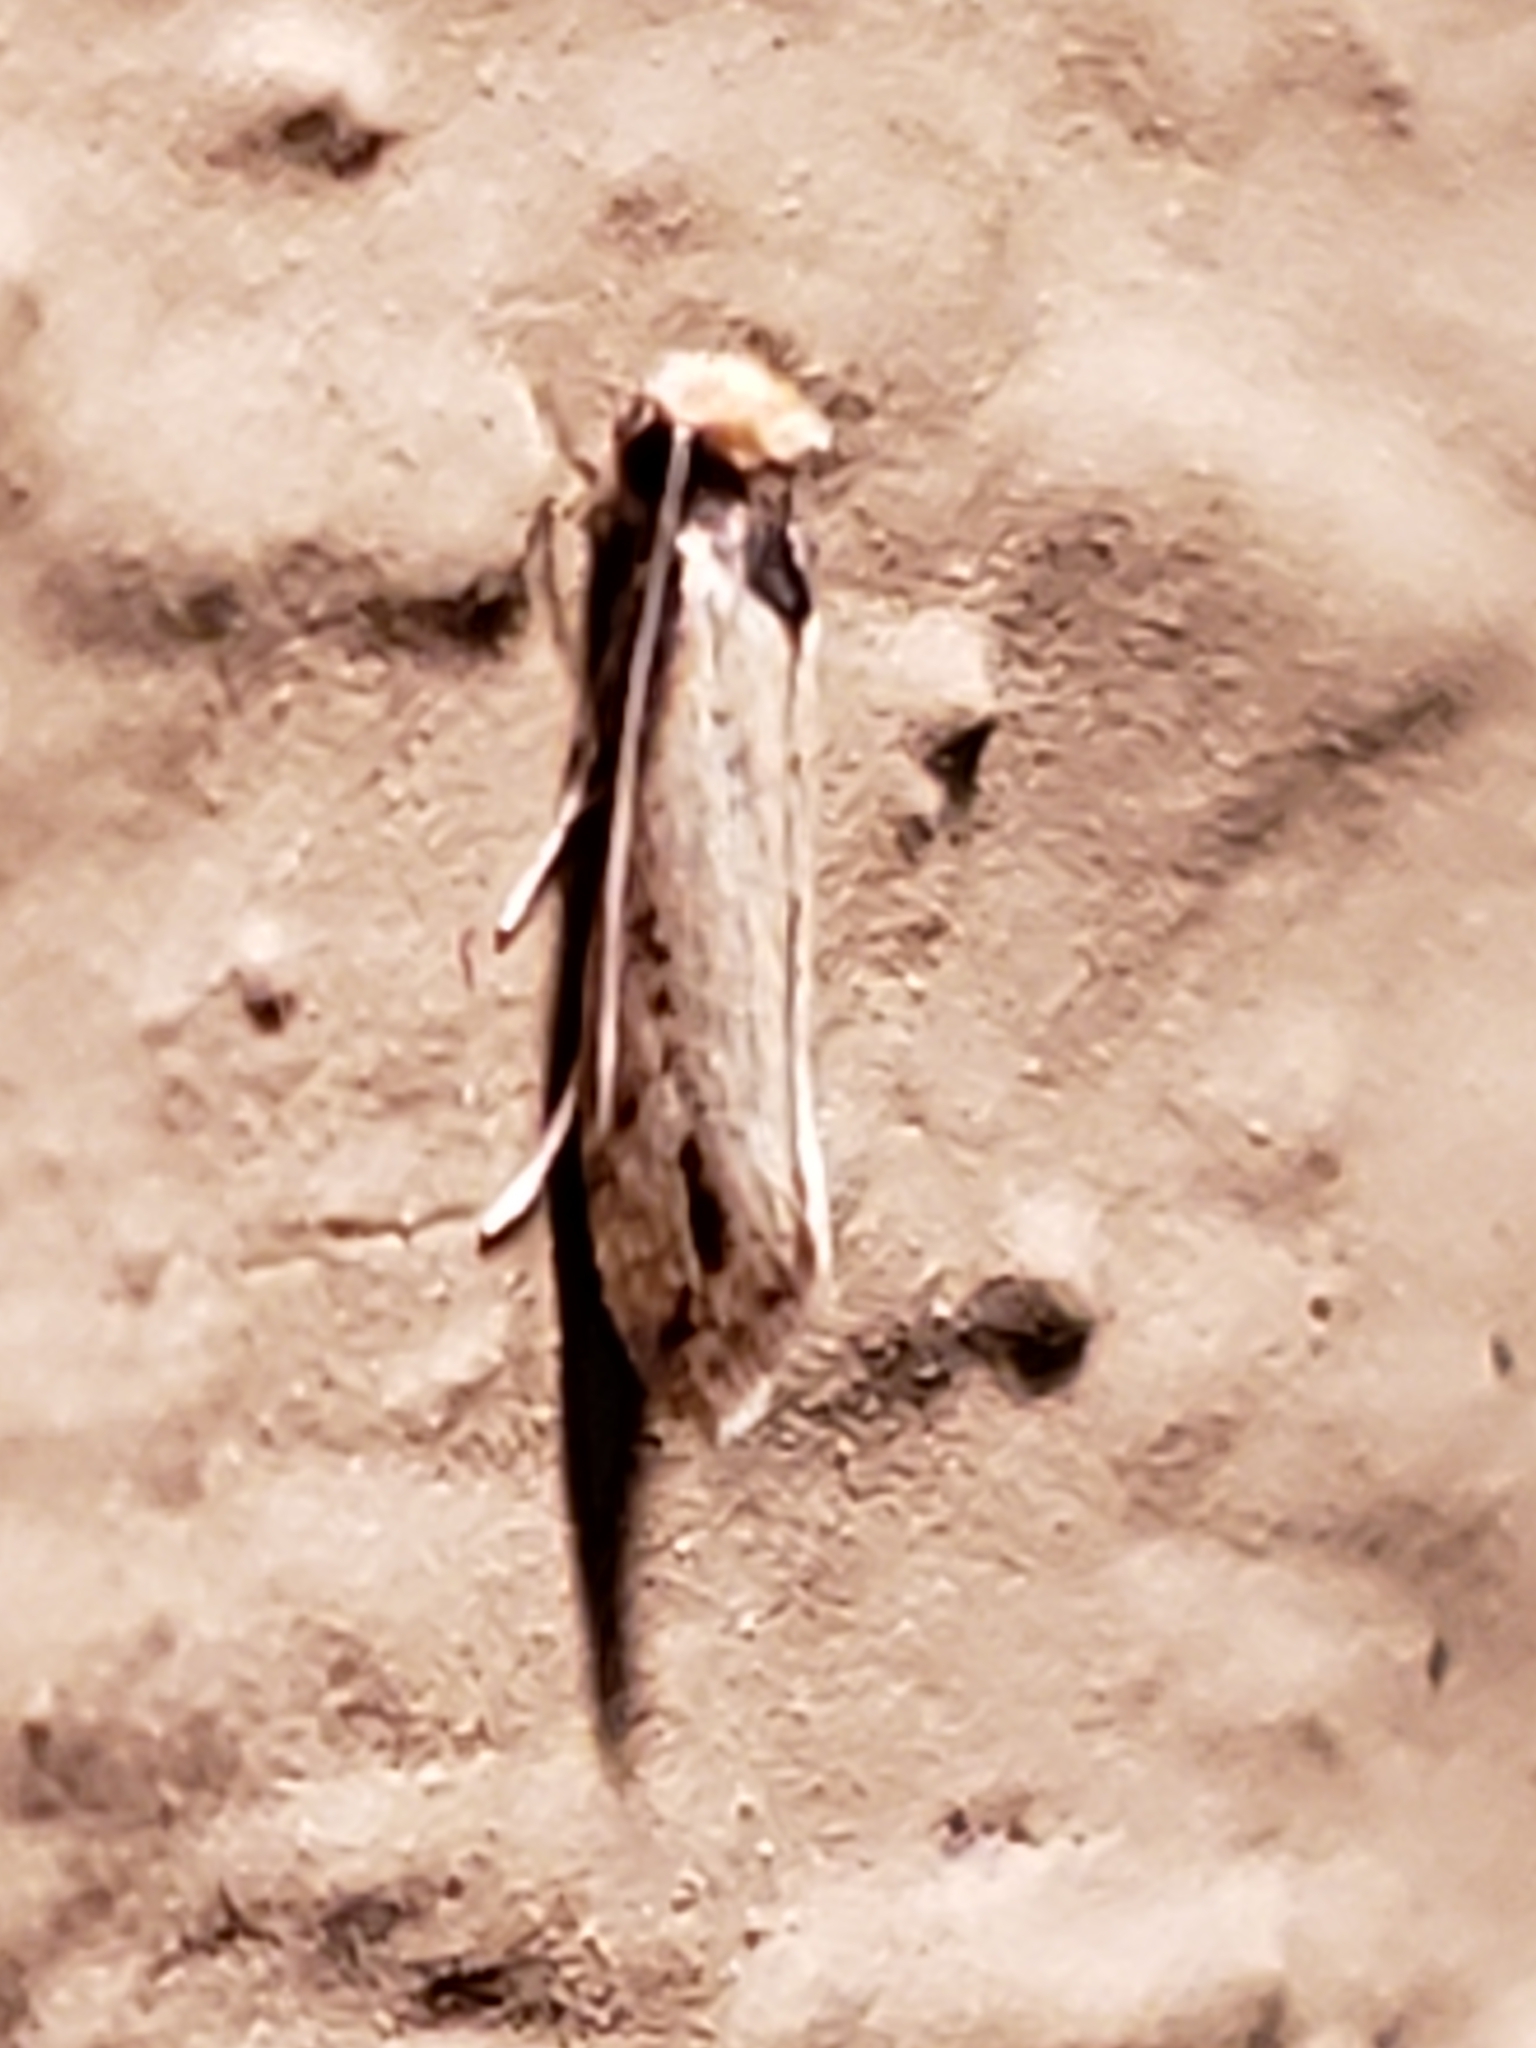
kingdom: Animalia
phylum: Arthropoda
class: Insecta
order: Lepidoptera
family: Tineidae
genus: Tinea
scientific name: Tinea apicimaculella
